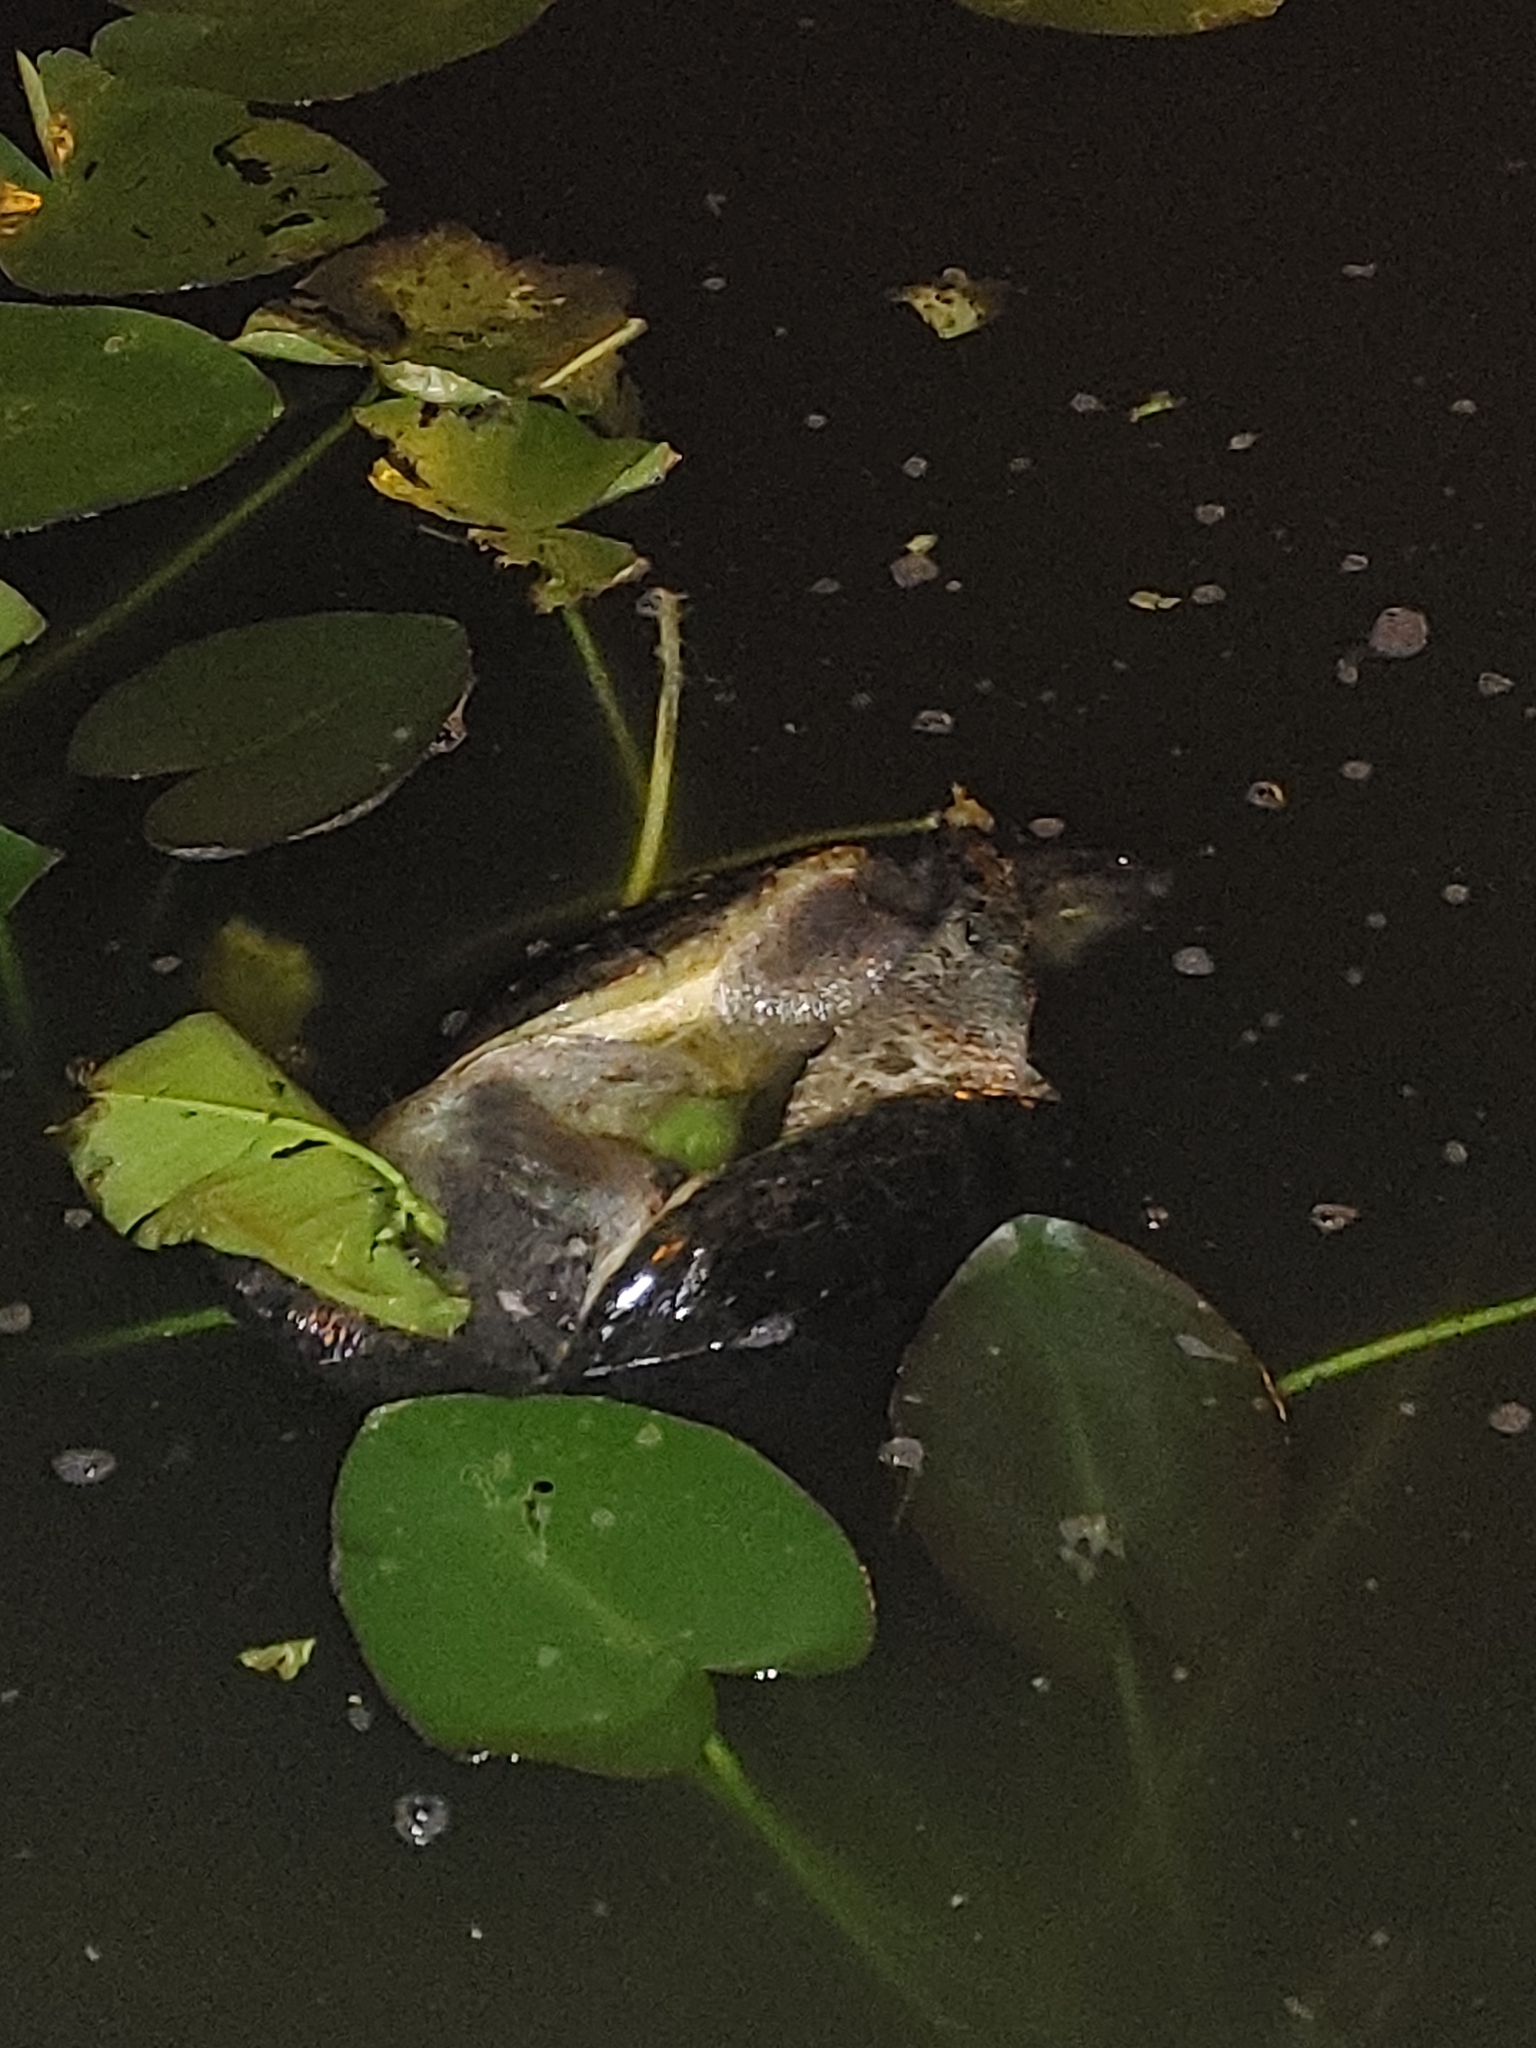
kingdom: Animalia
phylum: Chordata
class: Testudines
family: Chelydridae
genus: Chelydra
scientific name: Chelydra serpentina
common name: Common snapping turtle
